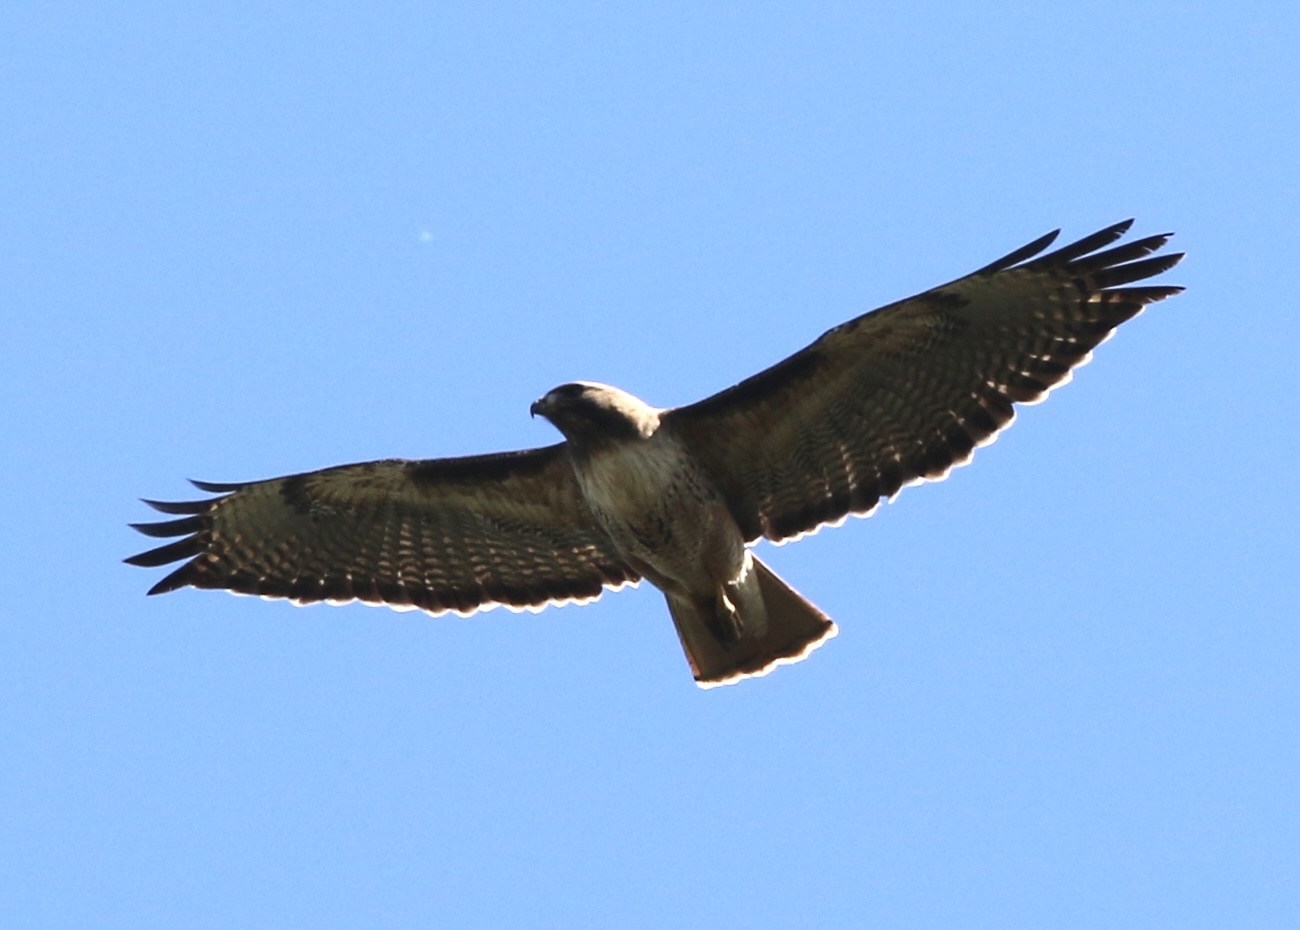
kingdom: Animalia
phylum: Chordata
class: Aves
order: Accipitriformes
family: Accipitridae
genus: Buteo
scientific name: Buteo jamaicensis
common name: Red-tailed hawk
